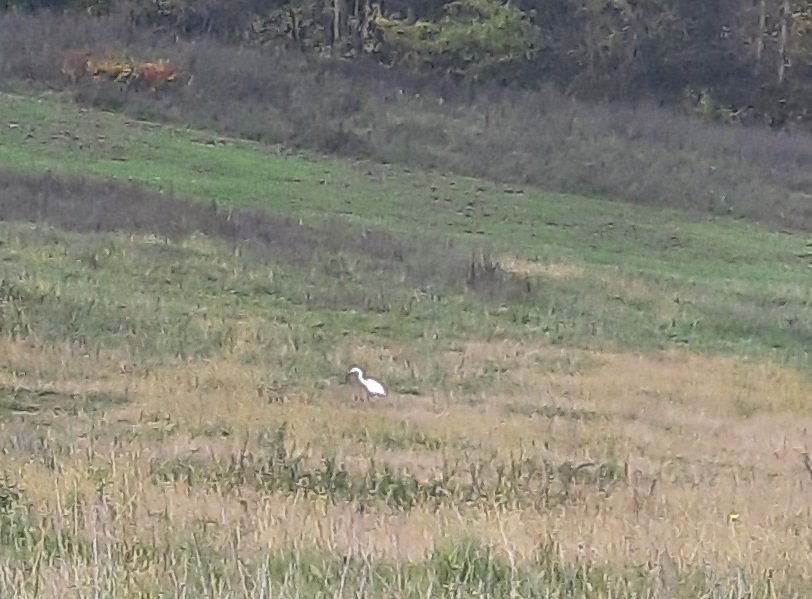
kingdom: Animalia
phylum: Chordata
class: Aves
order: Pelecaniformes
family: Ardeidae
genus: Ardea
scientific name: Ardea alba
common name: Great egret
